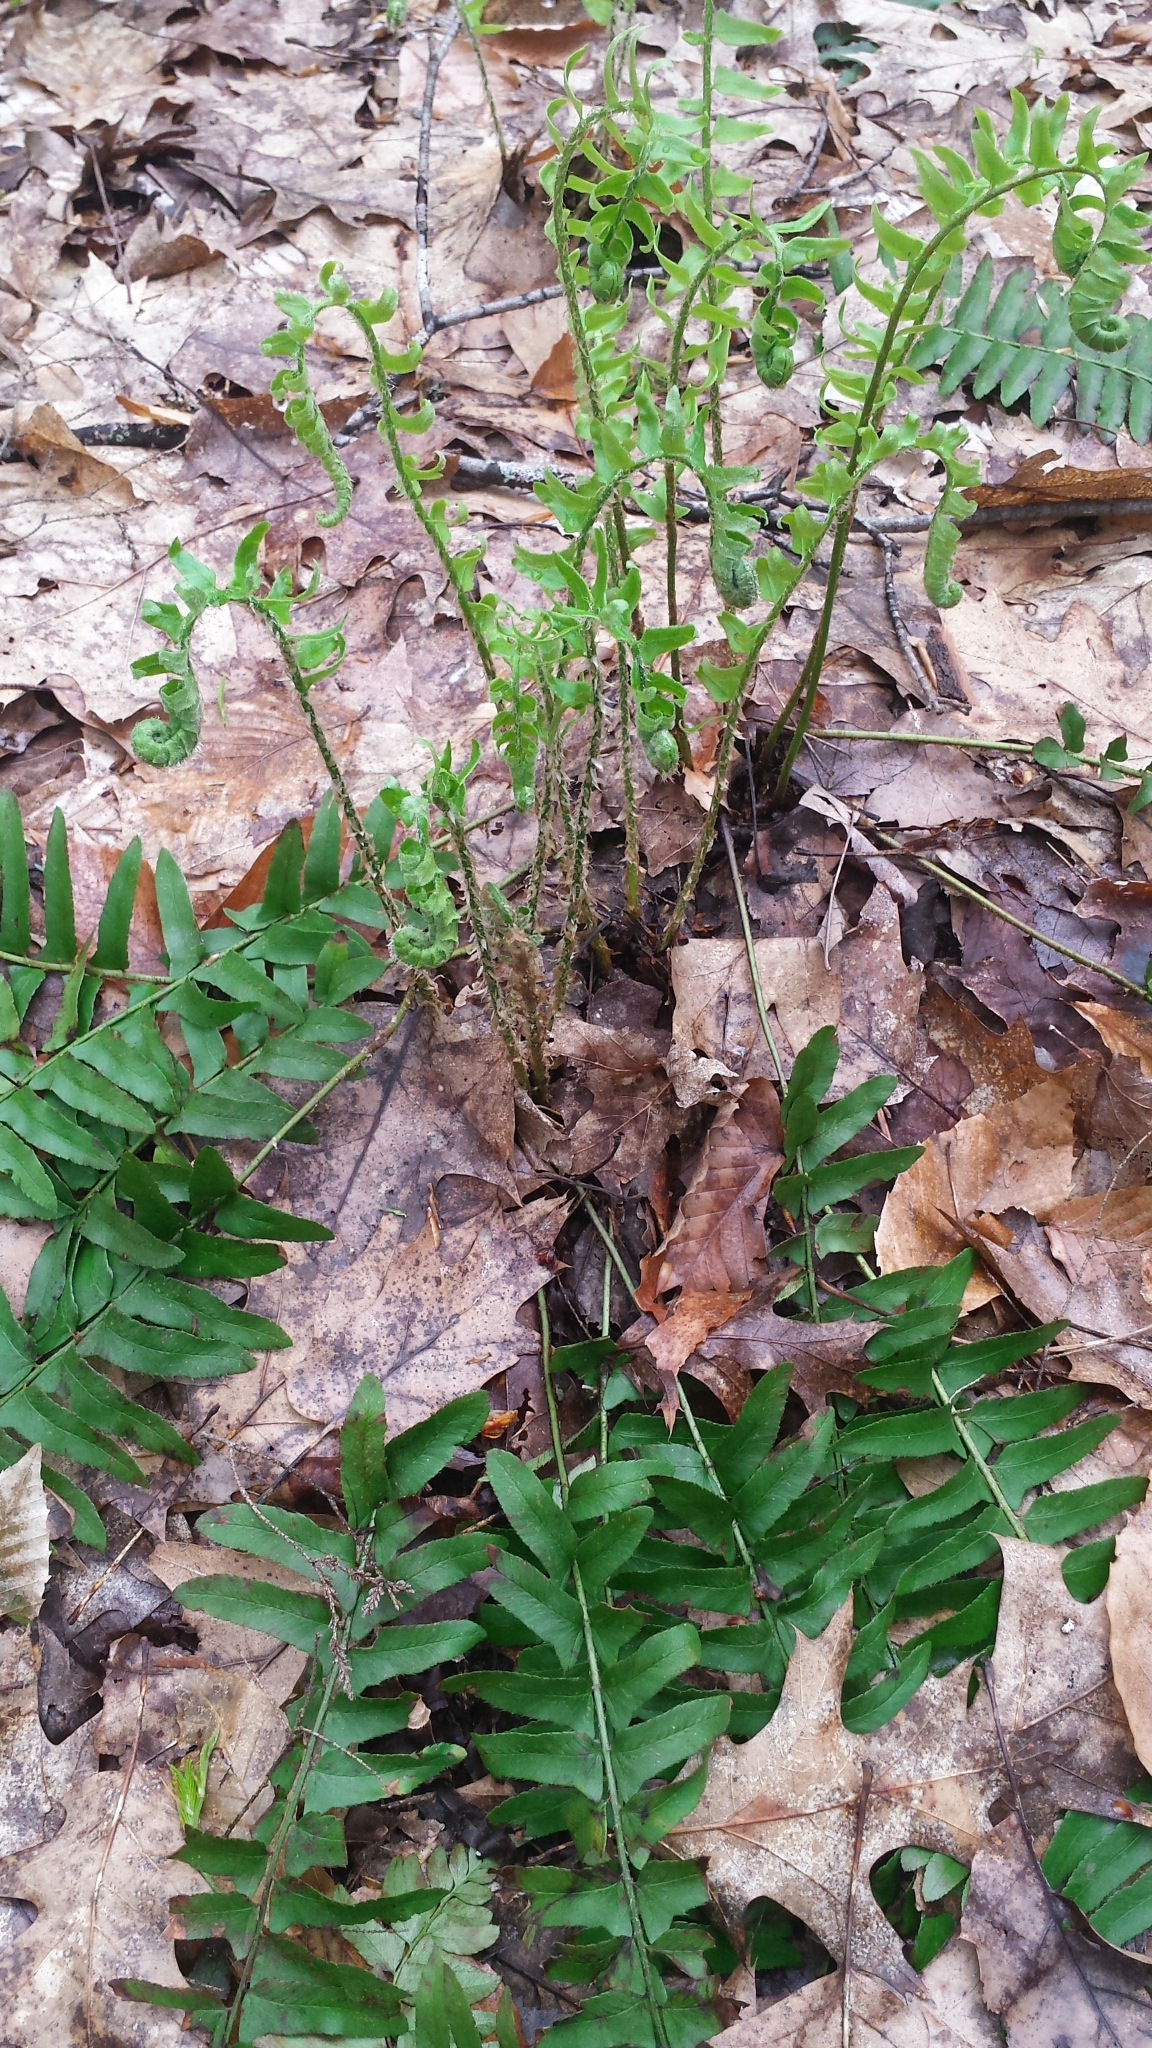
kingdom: Plantae
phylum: Tracheophyta
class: Polypodiopsida
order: Polypodiales
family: Dryopteridaceae
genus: Polystichum
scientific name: Polystichum acrostichoides
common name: Christmas fern
